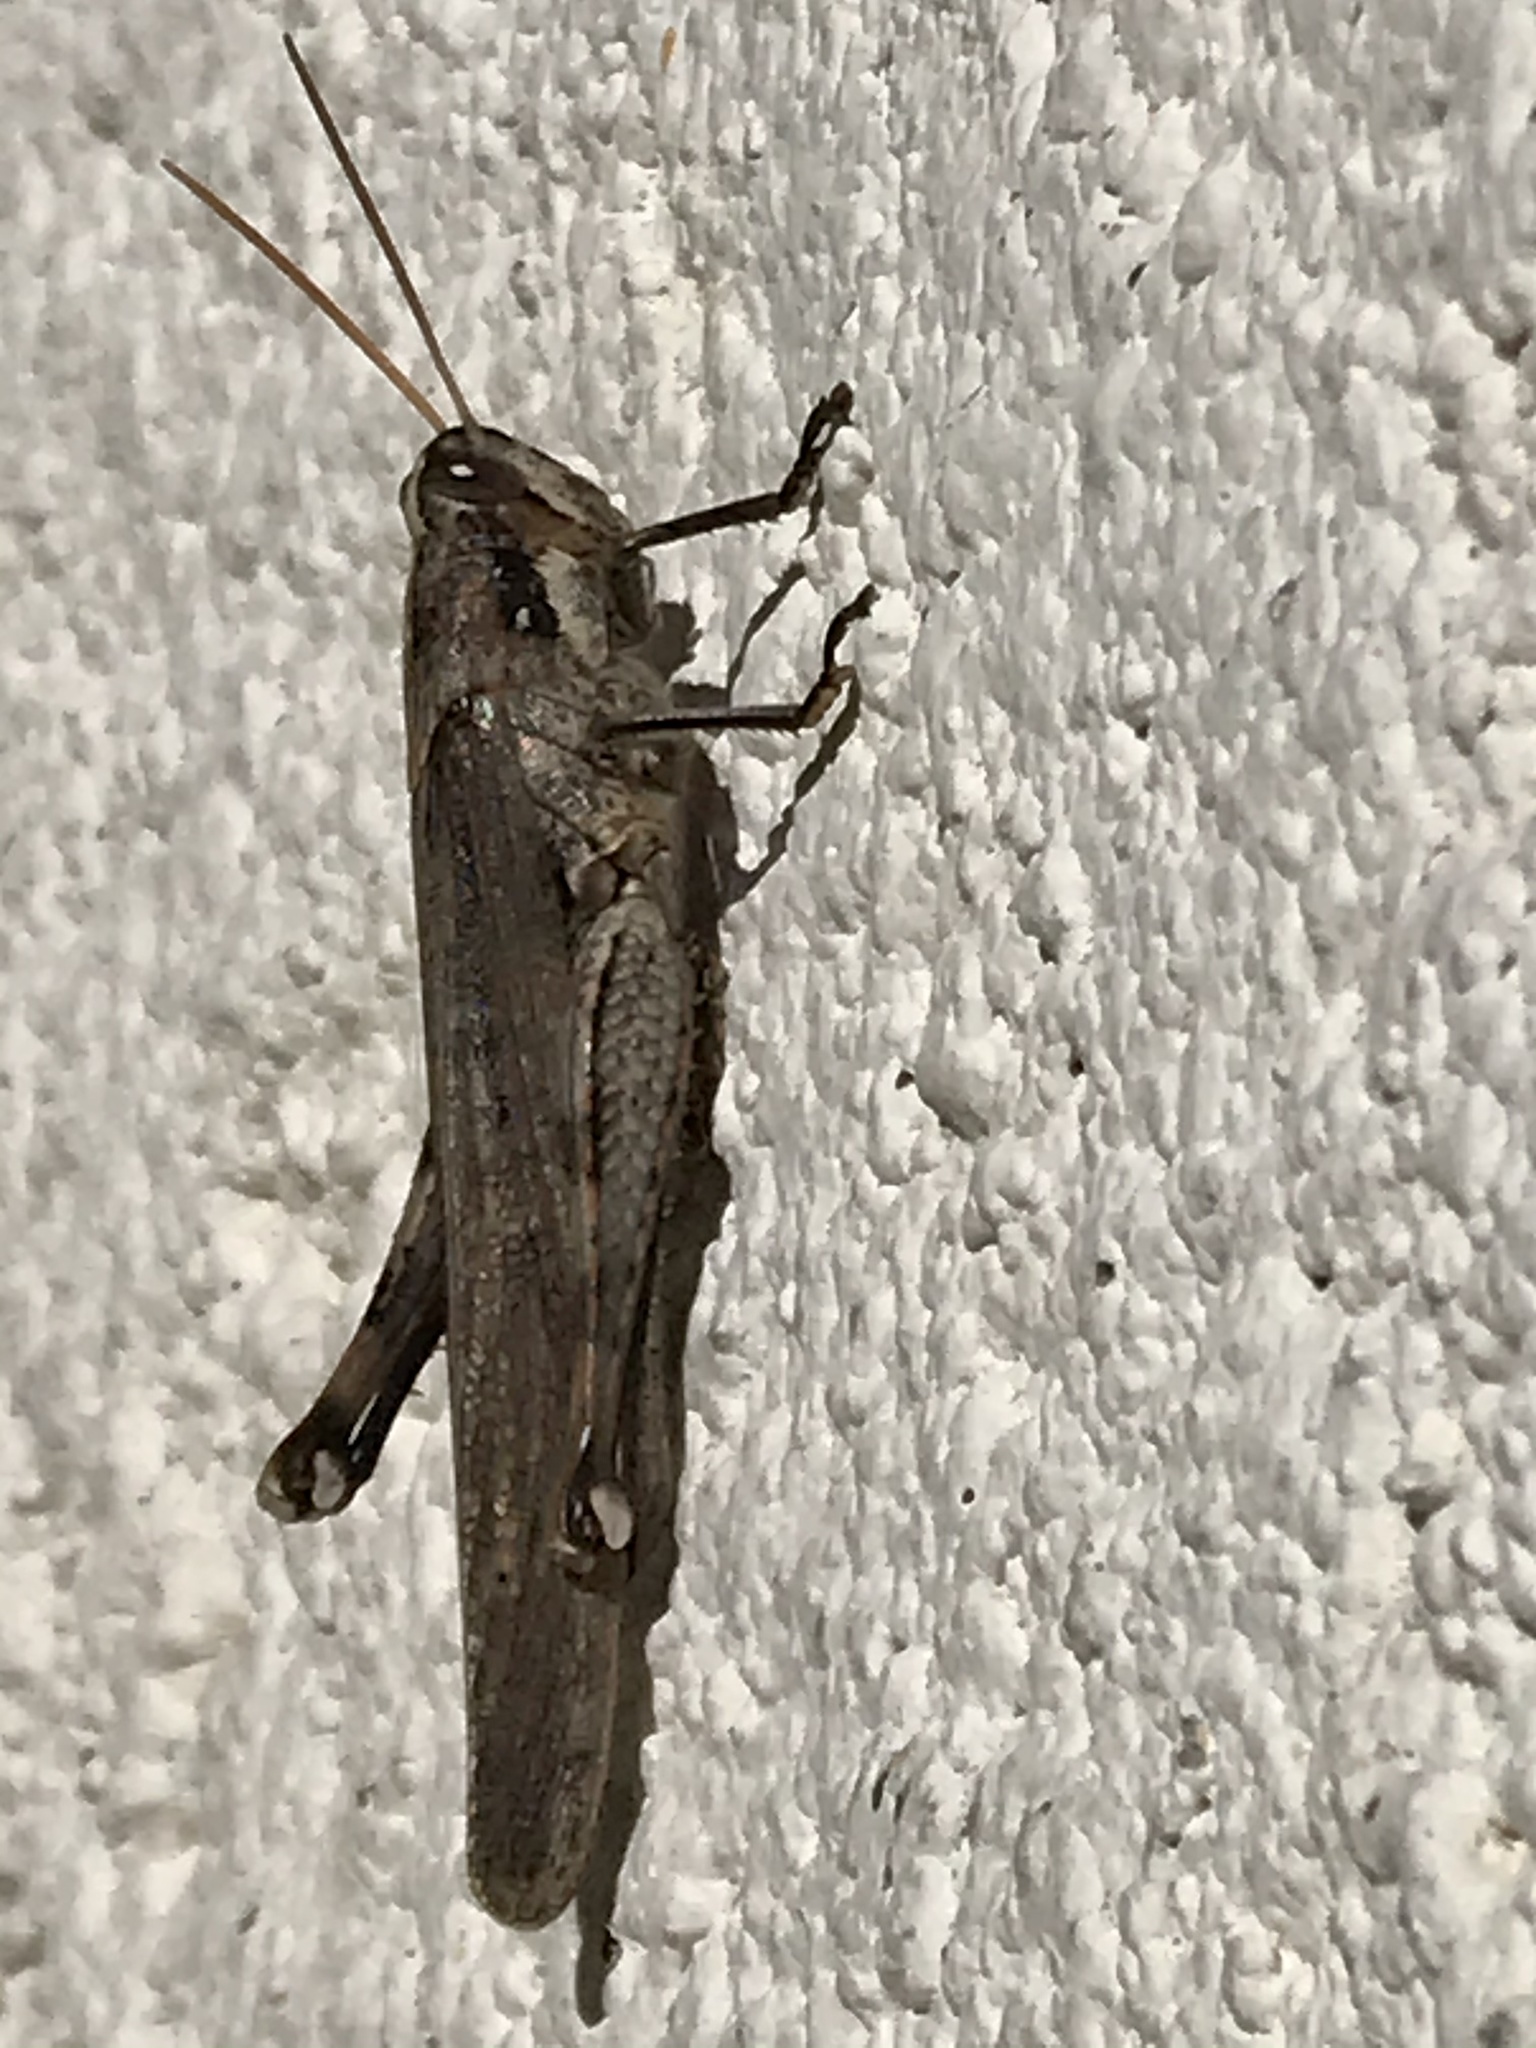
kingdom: Animalia
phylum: Arthropoda
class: Insecta
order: Orthoptera
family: Acrididae
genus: Schistocerca
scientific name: Schistocerca nitens
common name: Vagrant grasshopper
